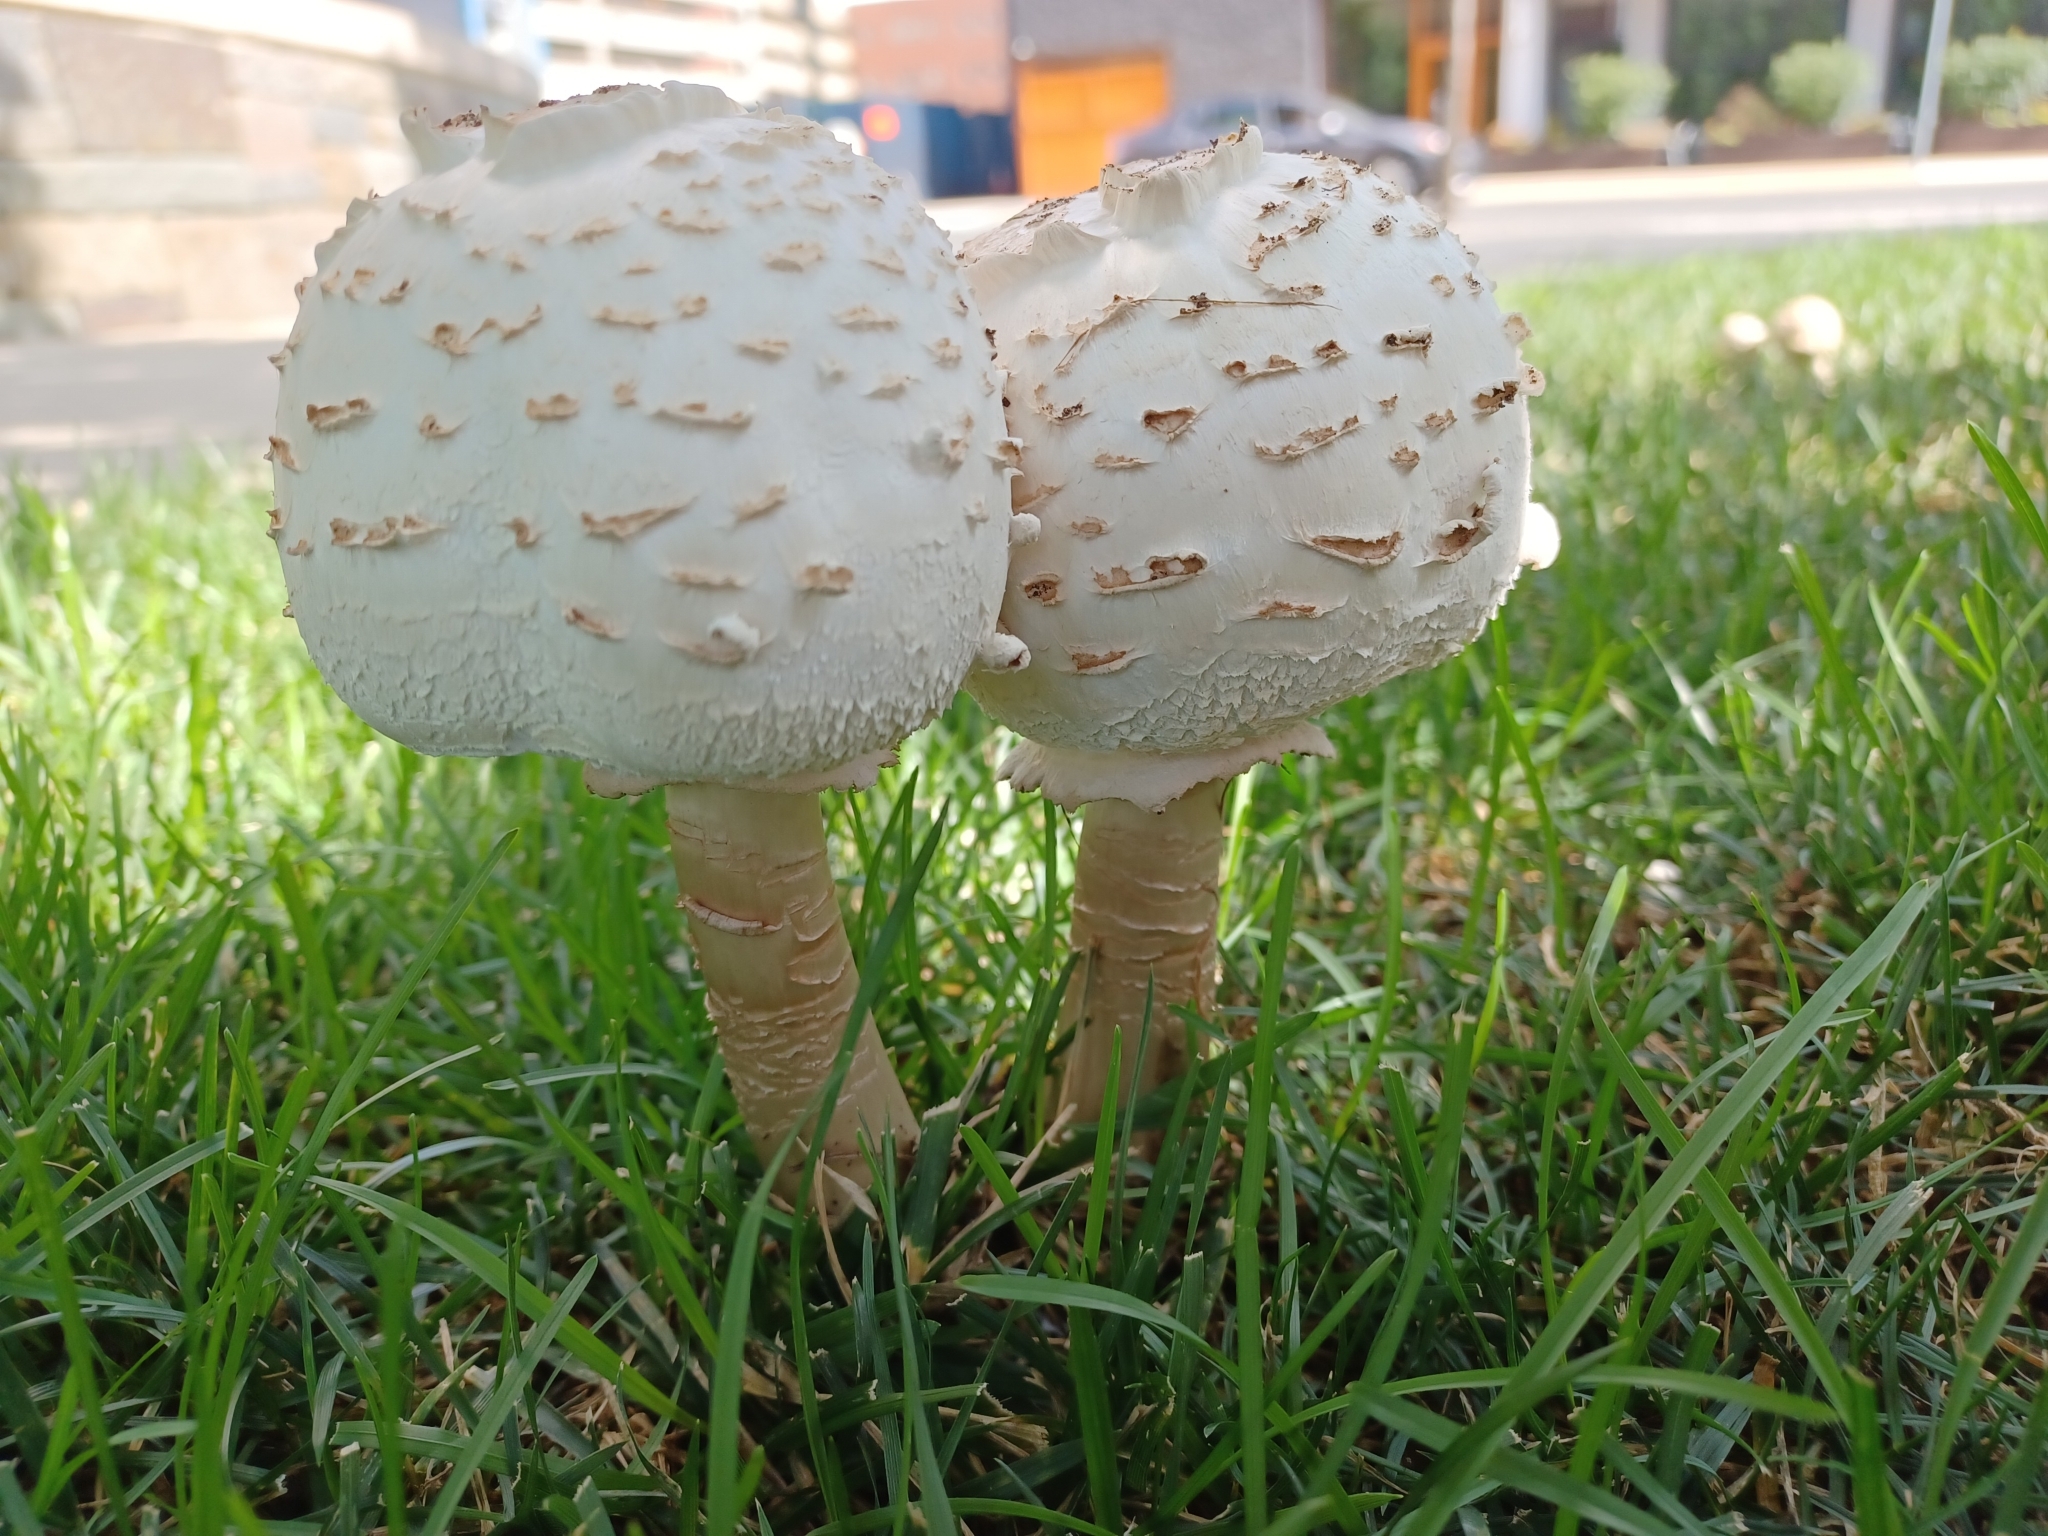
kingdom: Fungi
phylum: Basidiomycota
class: Agaricomycetes
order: Agaricales
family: Agaricaceae
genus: Chlorophyllum
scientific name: Chlorophyllum molybdites
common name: False parasol
